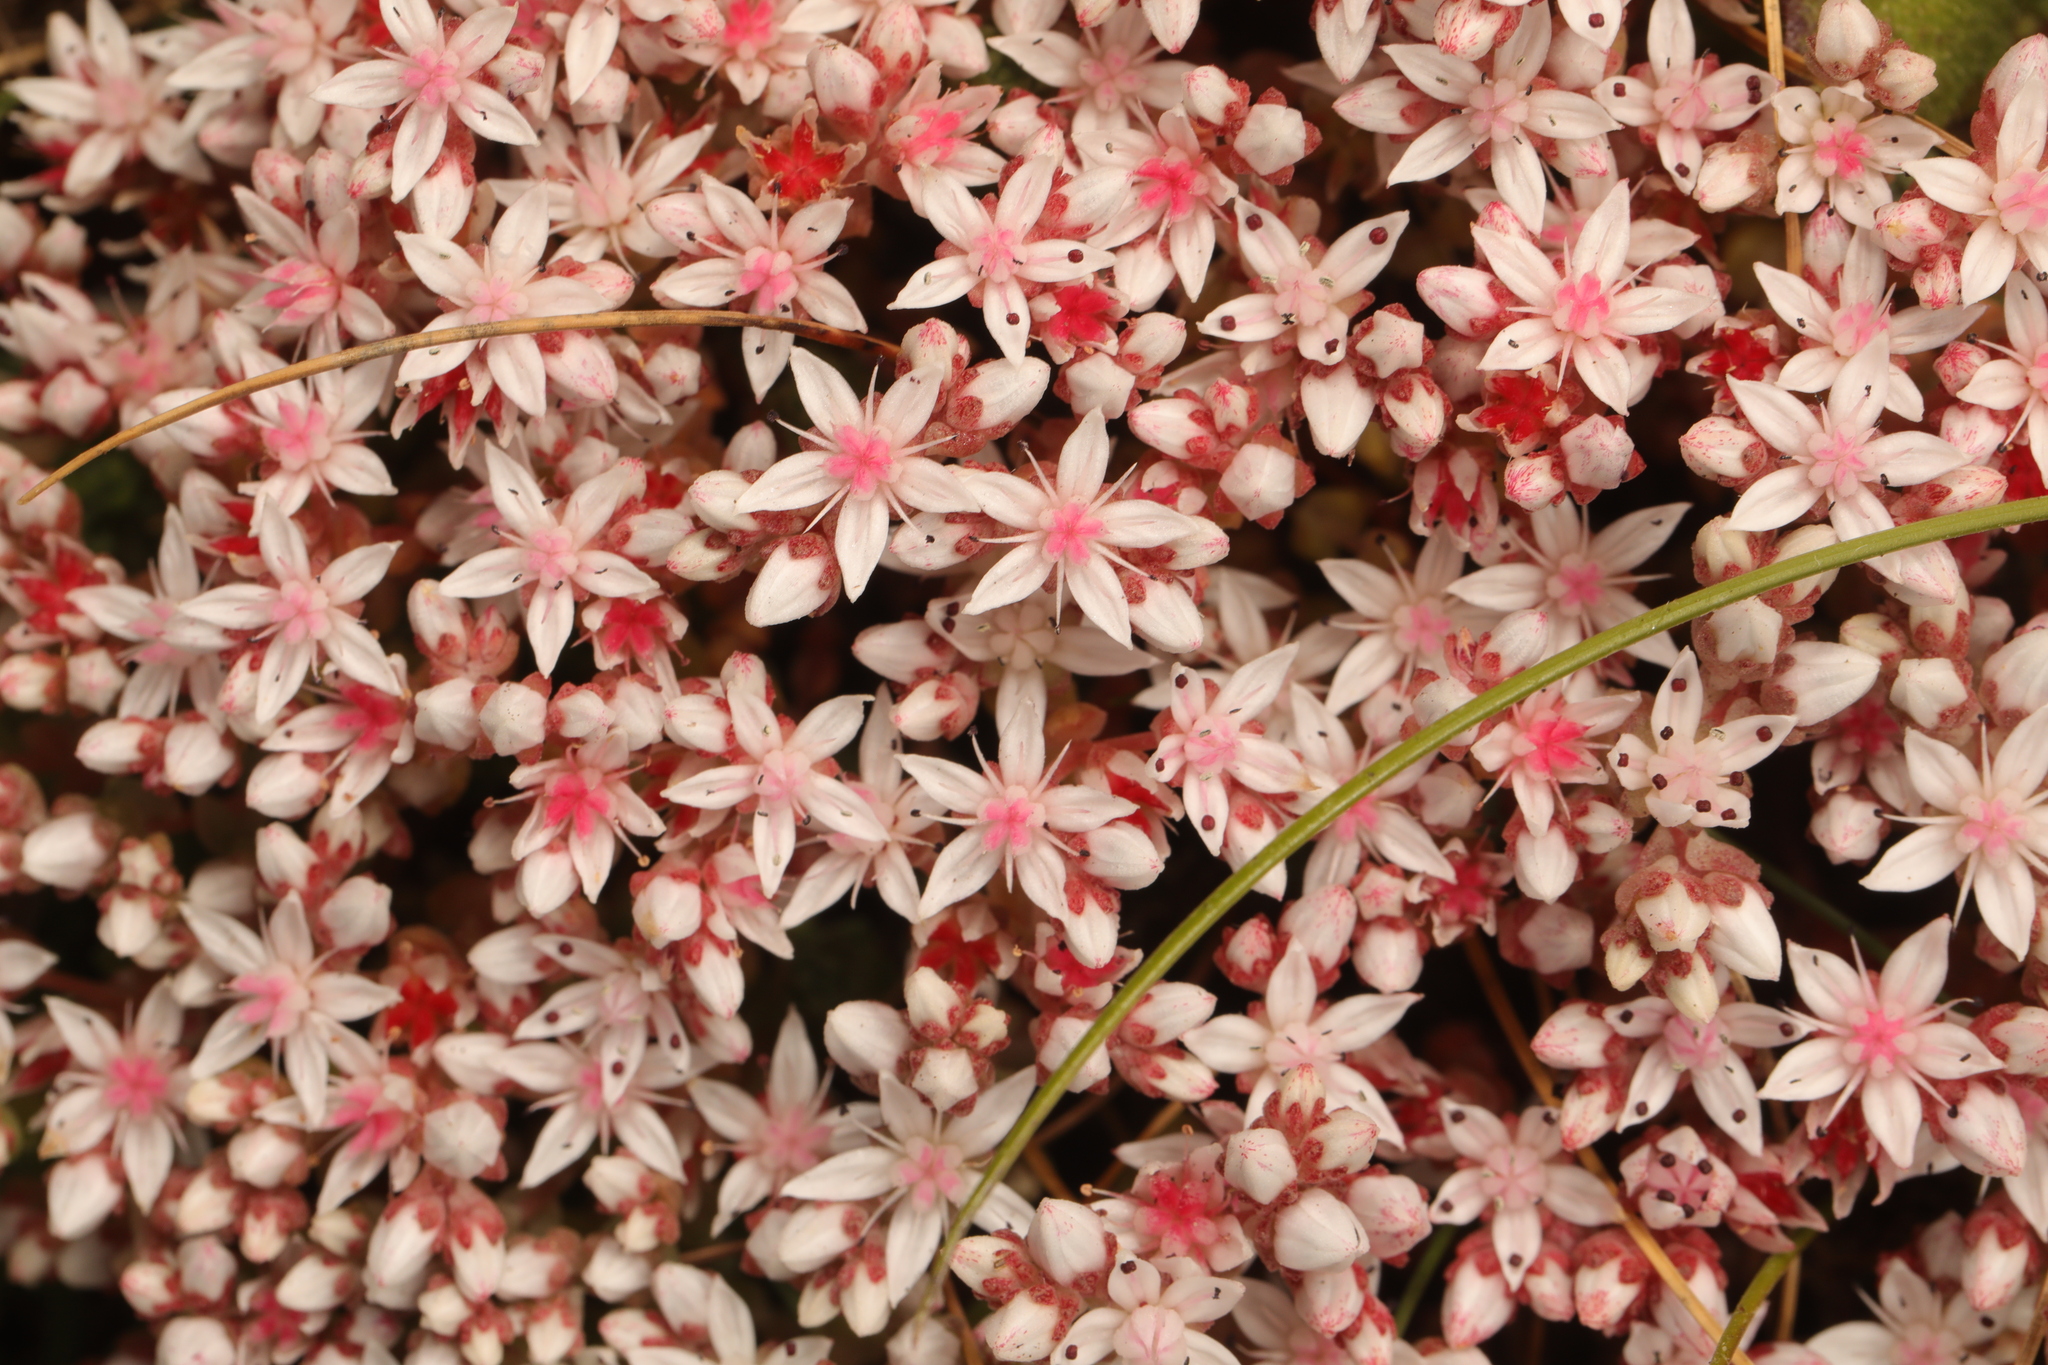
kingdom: Plantae
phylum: Tracheophyta
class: Magnoliopsida
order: Saxifragales
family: Crassulaceae
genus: Sedum
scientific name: Sedum anglicum
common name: English stonecrop
